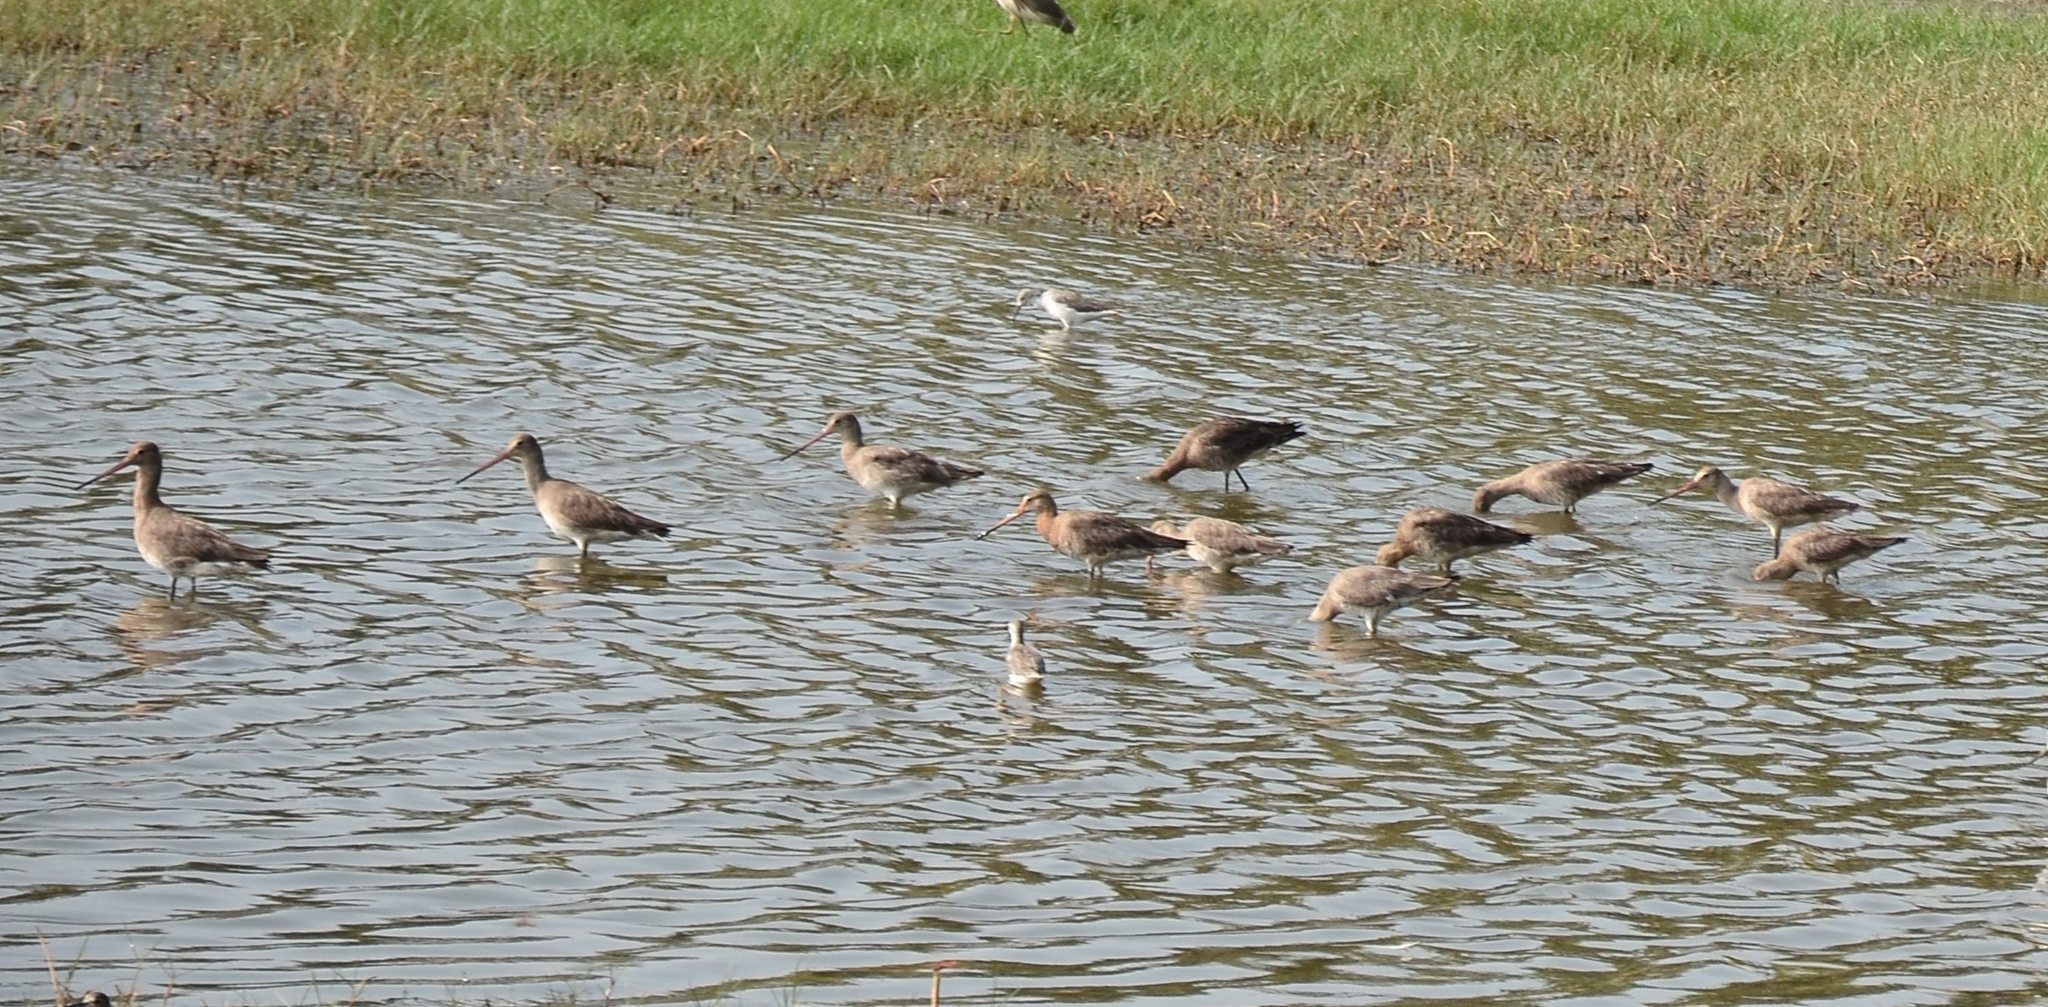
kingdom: Animalia
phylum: Chordata
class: Aves
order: Charadriiformes
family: Scolopacidae
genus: Limosa
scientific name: Limosa limosa
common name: Black-tailed godwit
